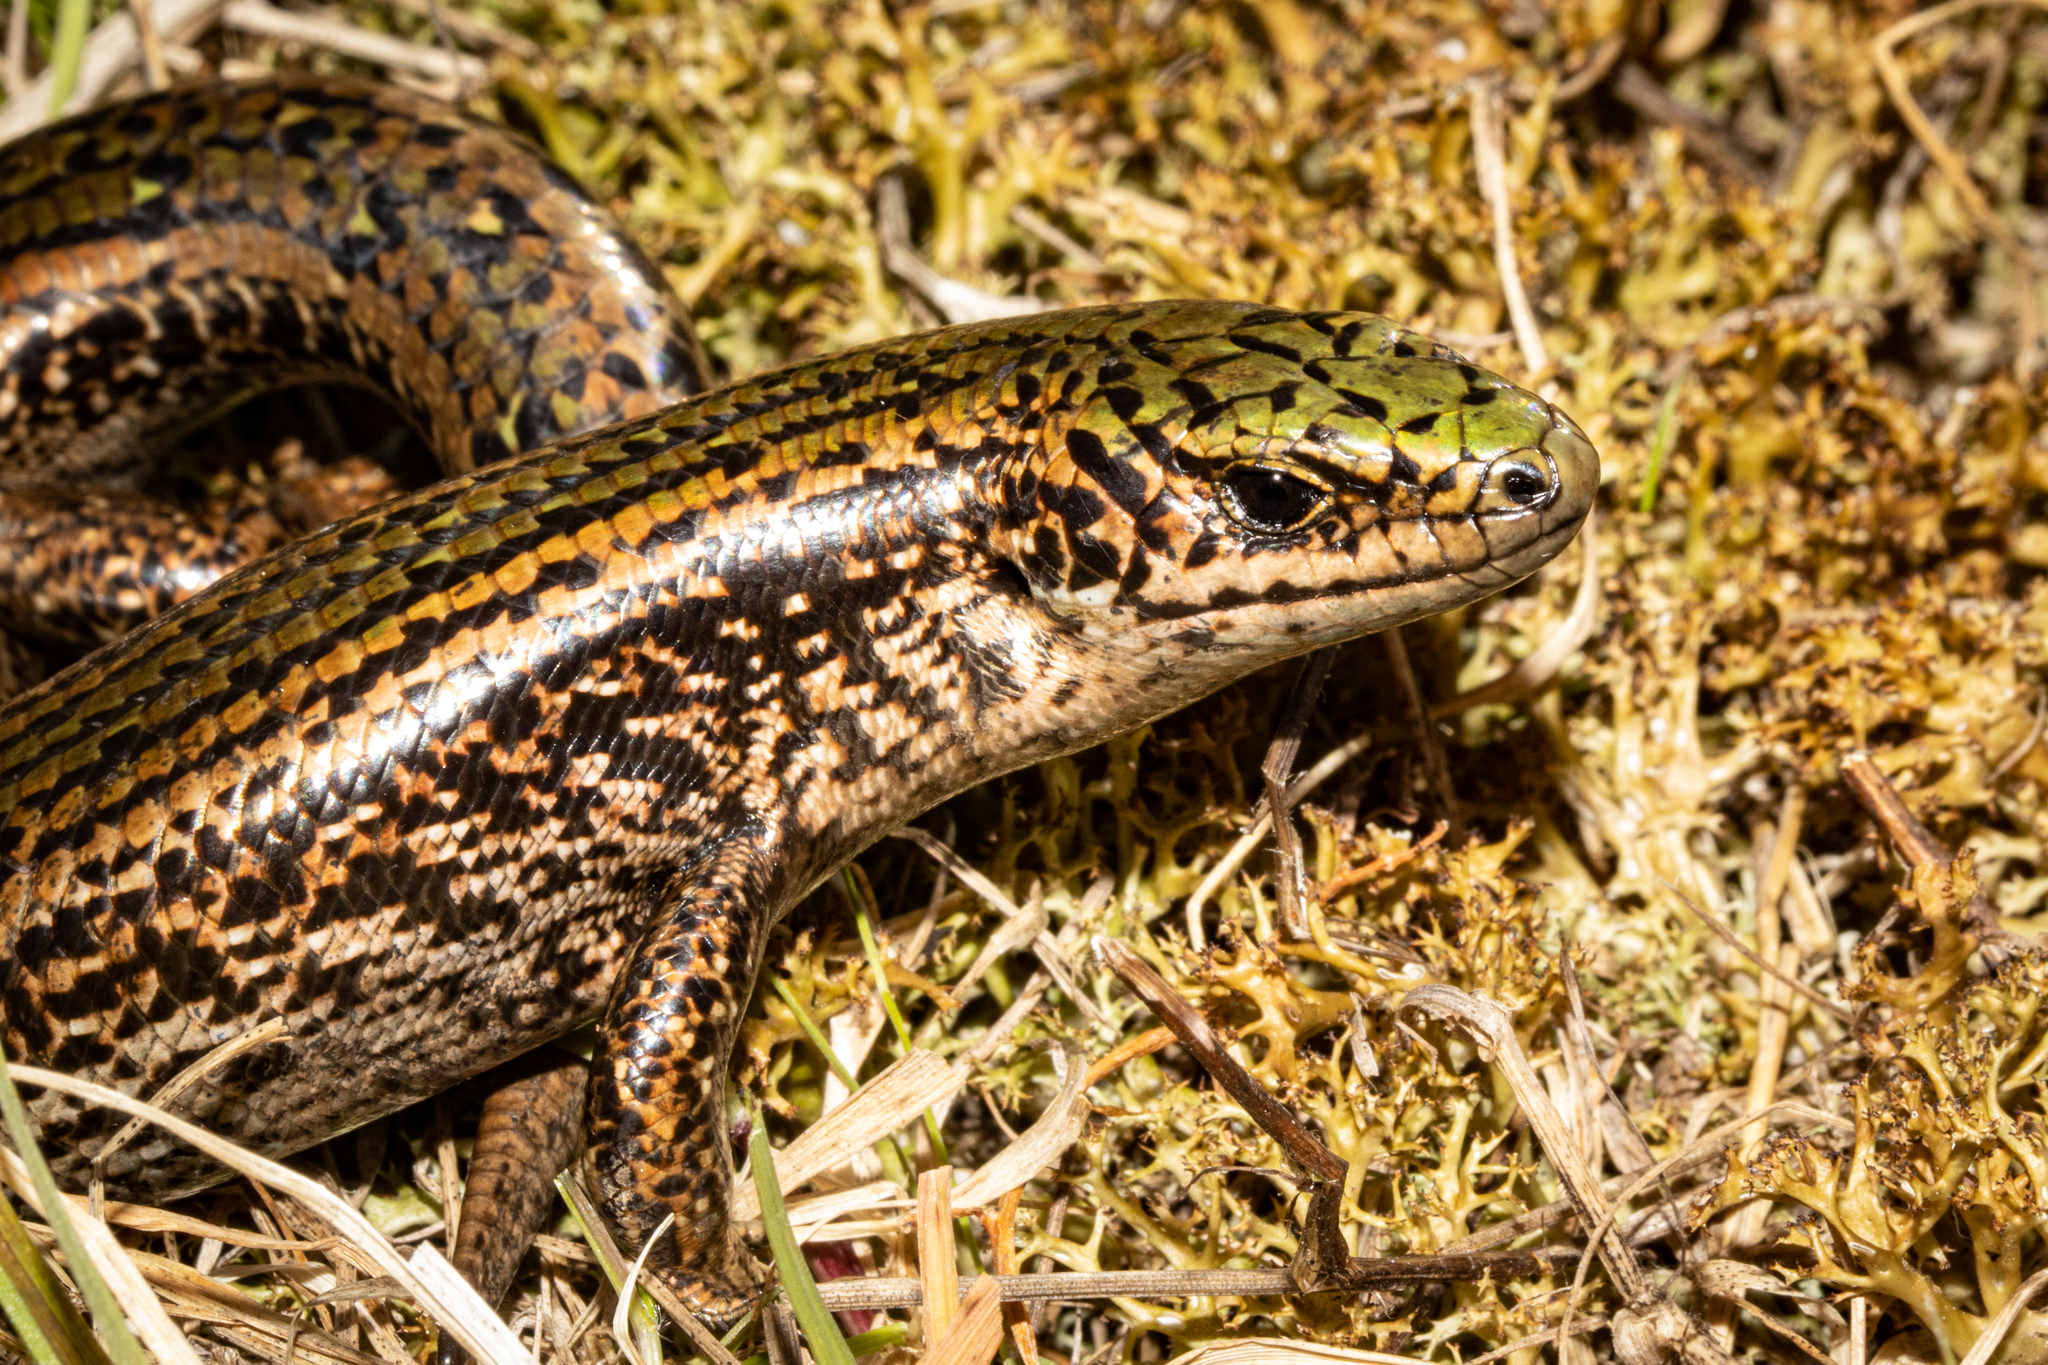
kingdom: Animalia
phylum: Chordata
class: Squamata
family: Scincidae
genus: Oligosoma
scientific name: Oligosoma chloronoton
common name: Green skink
